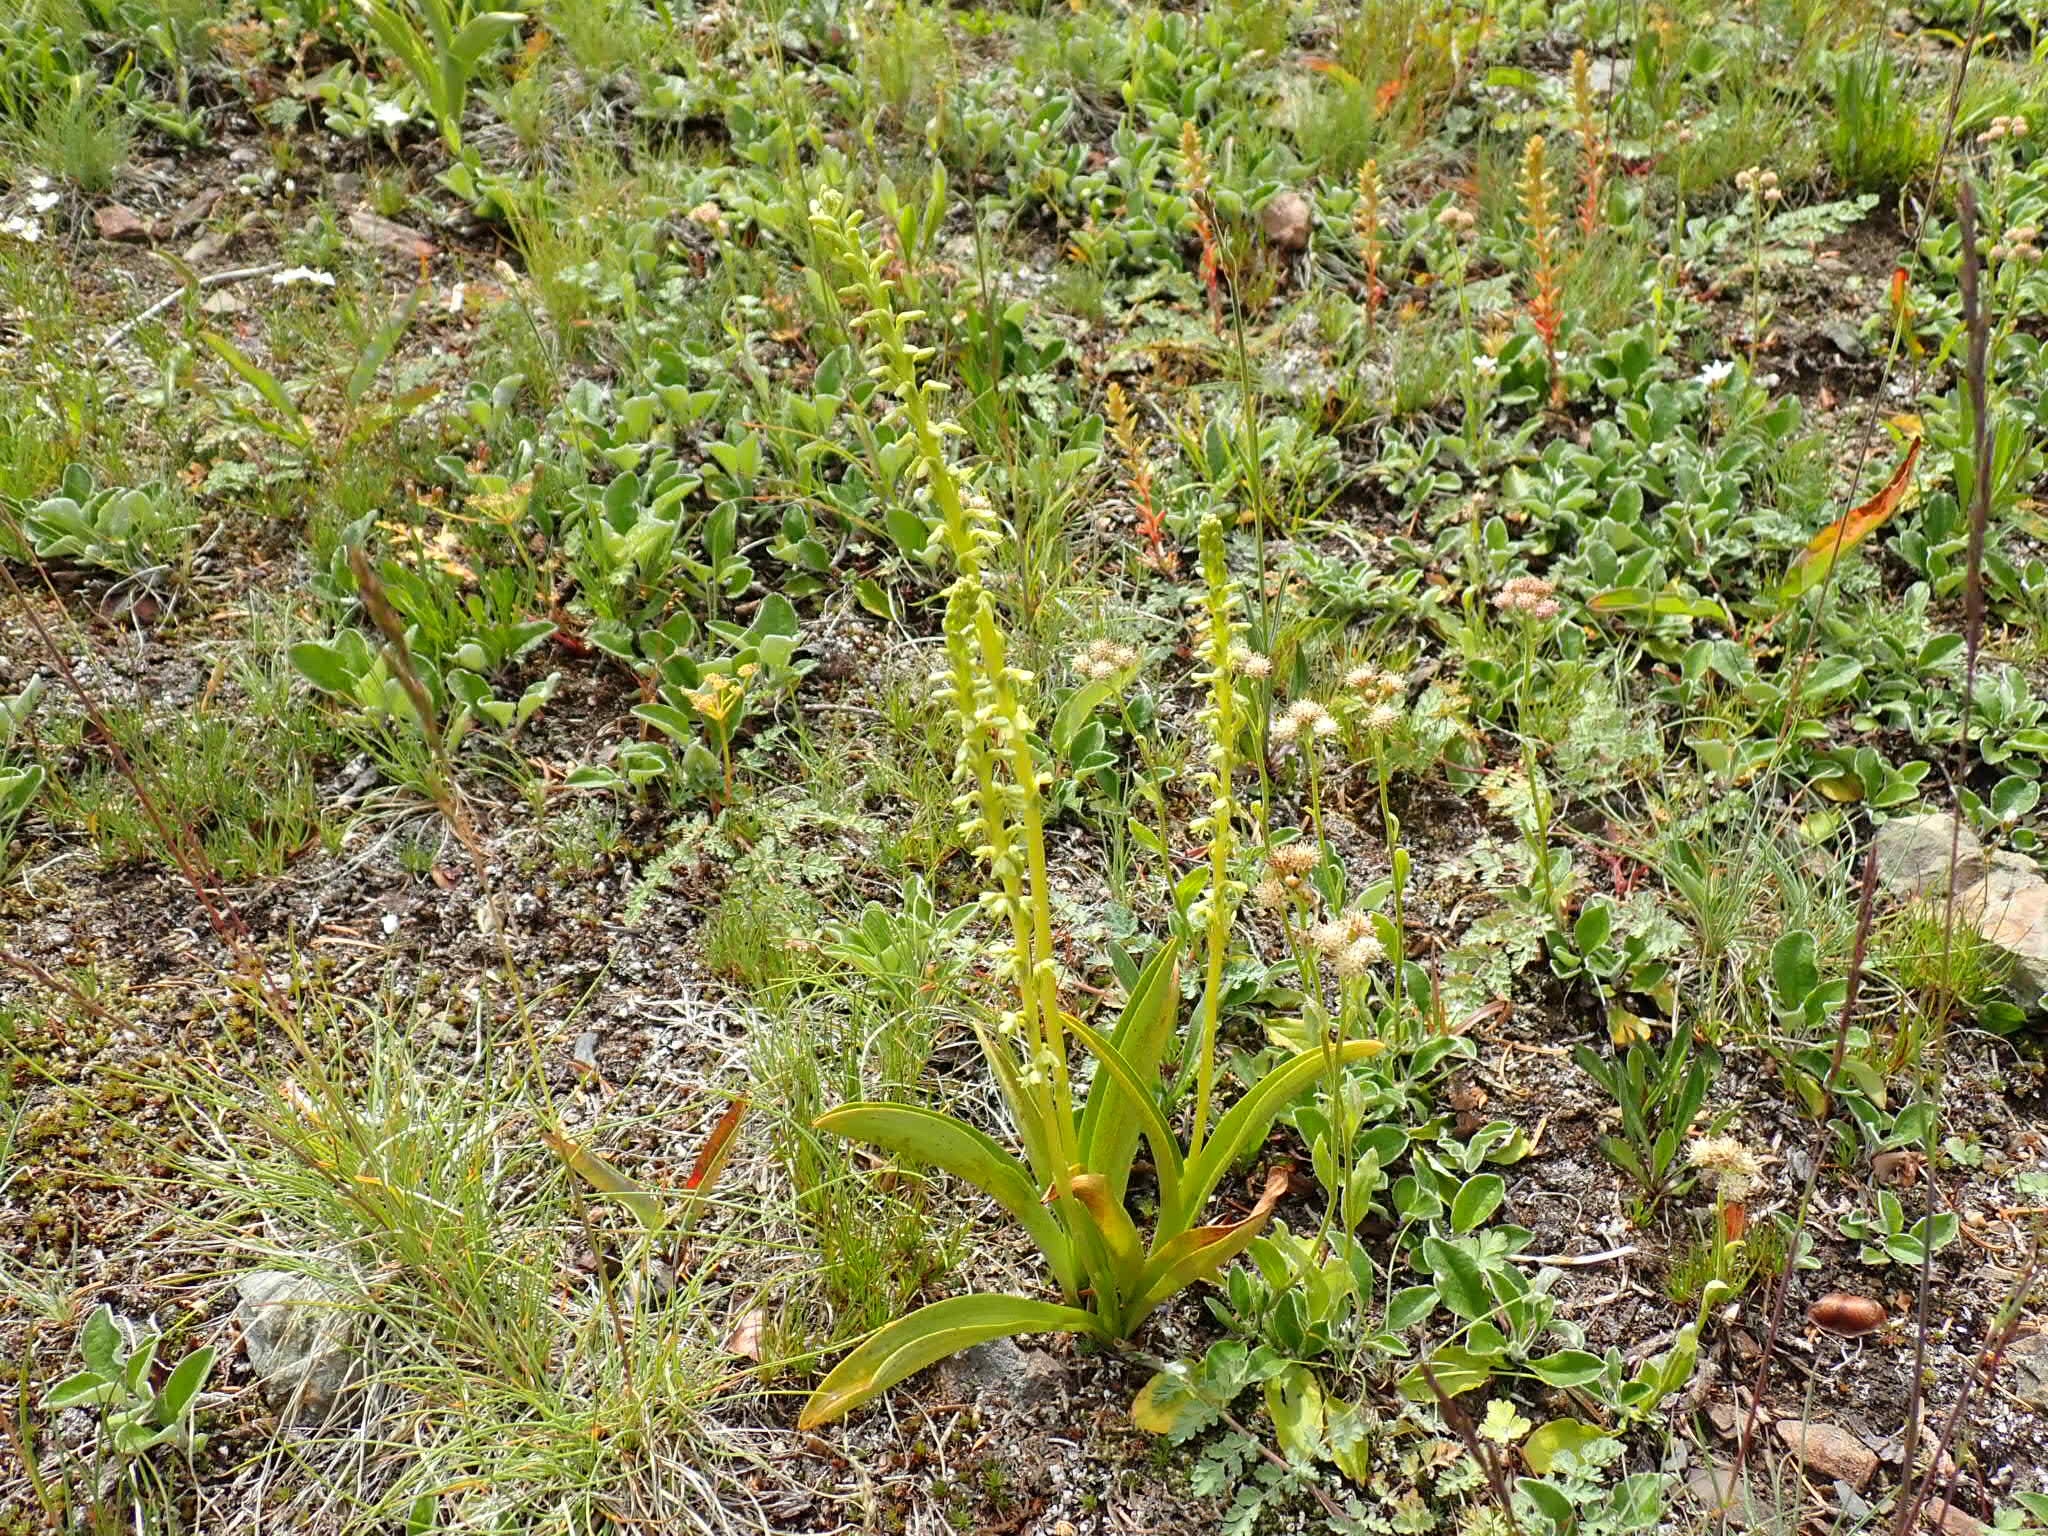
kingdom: Plantae
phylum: Tracheophyta
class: Liliopsida
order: Asparagales
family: Orchidaceae
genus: Platanthera
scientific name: Platanthera unalascensis
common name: Alaska bog orchid
